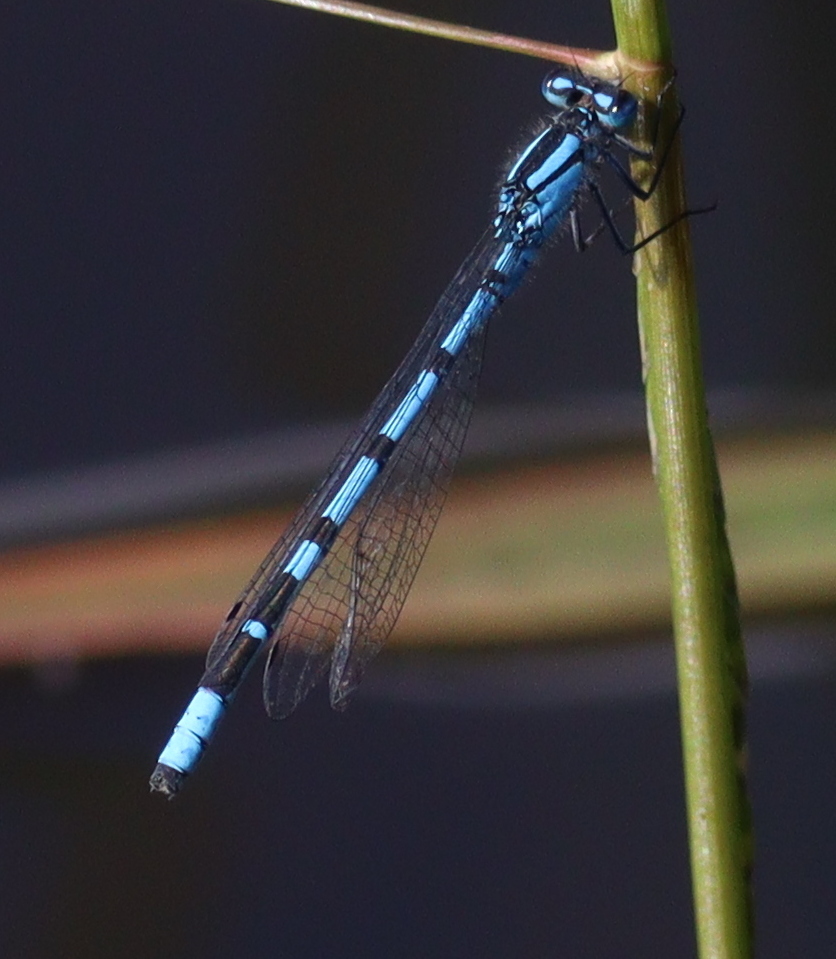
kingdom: Animalia
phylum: Arthropoda
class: Insecta
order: Odonata
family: Coenagrionidae
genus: Enallagma
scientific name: Enallagma cyathigerum
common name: Common blue damselfly
